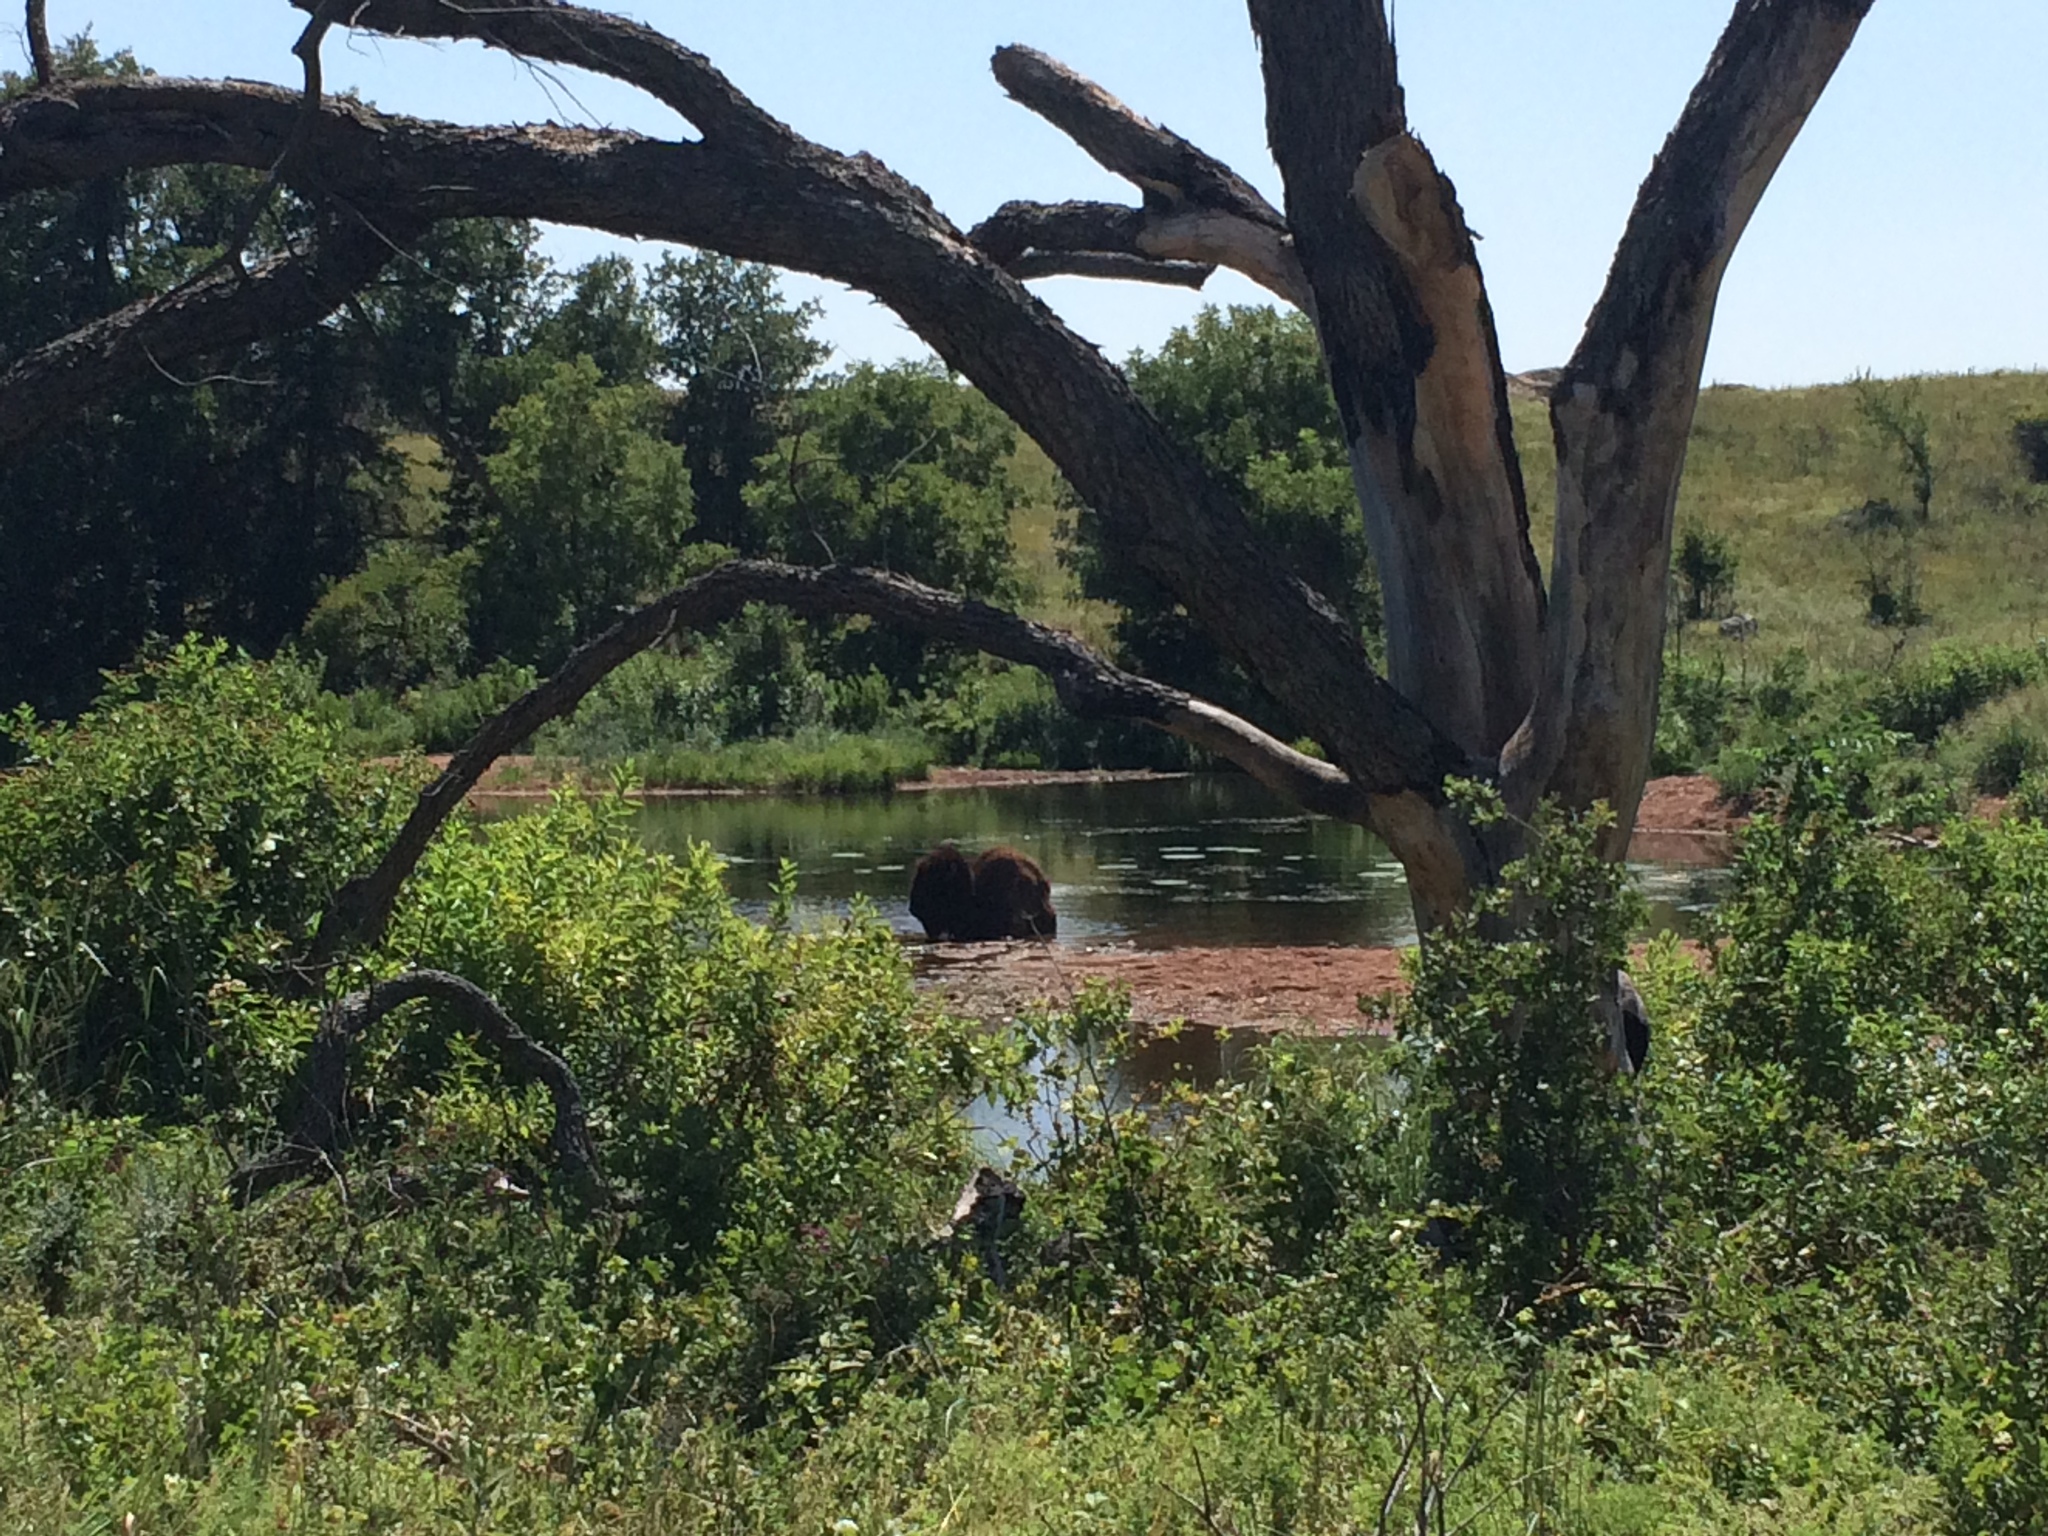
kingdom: Animalia
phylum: Chordata
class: Mammalia
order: Artiodactyla
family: Bovidae
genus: Bison
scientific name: Bison bison
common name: American bison
